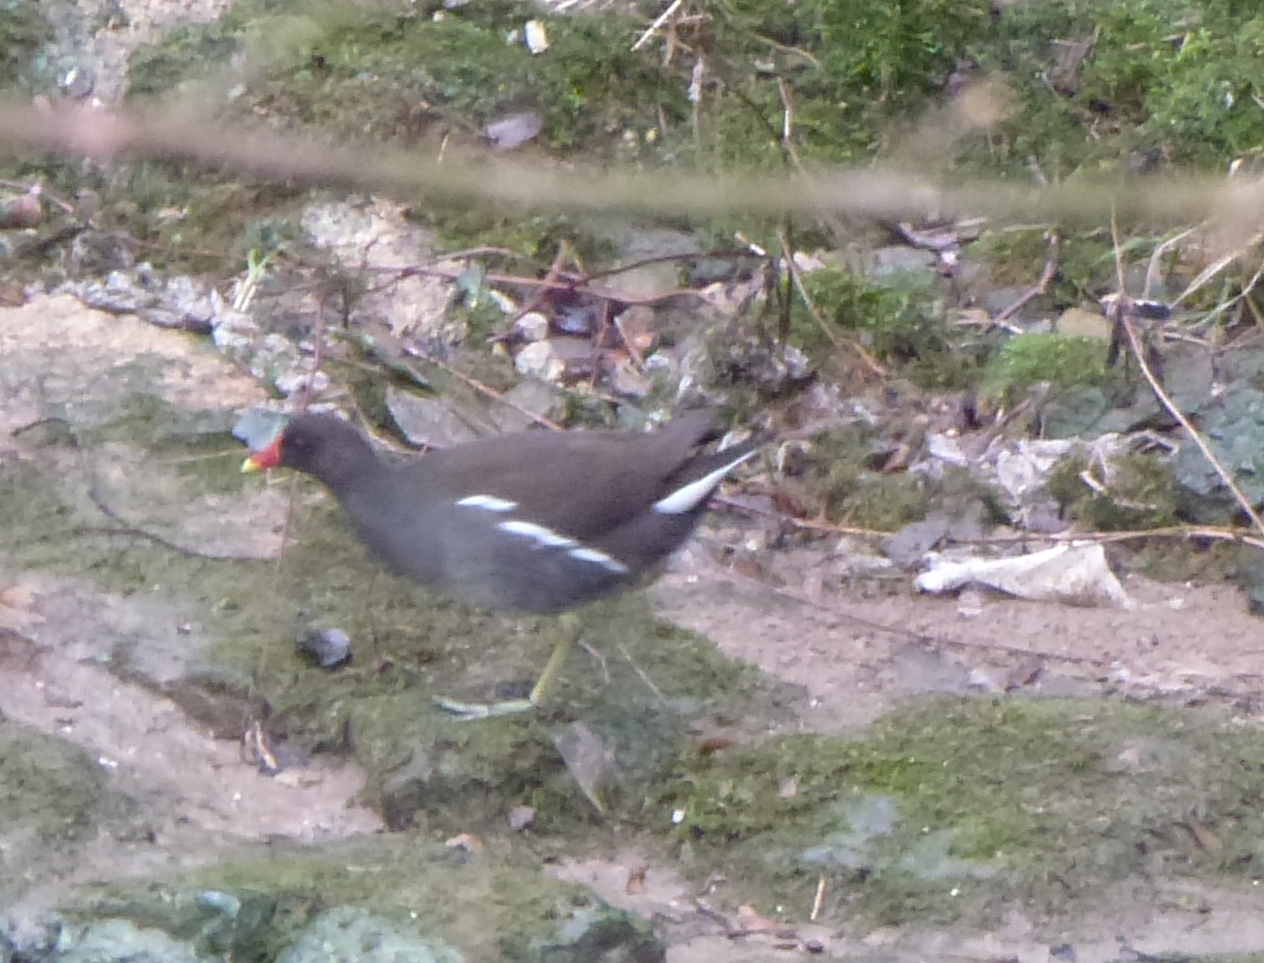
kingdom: Animalia
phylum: Chordata
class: Aves
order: Gruiformes
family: Rallidae
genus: Gallinula
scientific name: Gallinula chloropus
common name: Common moorhen
